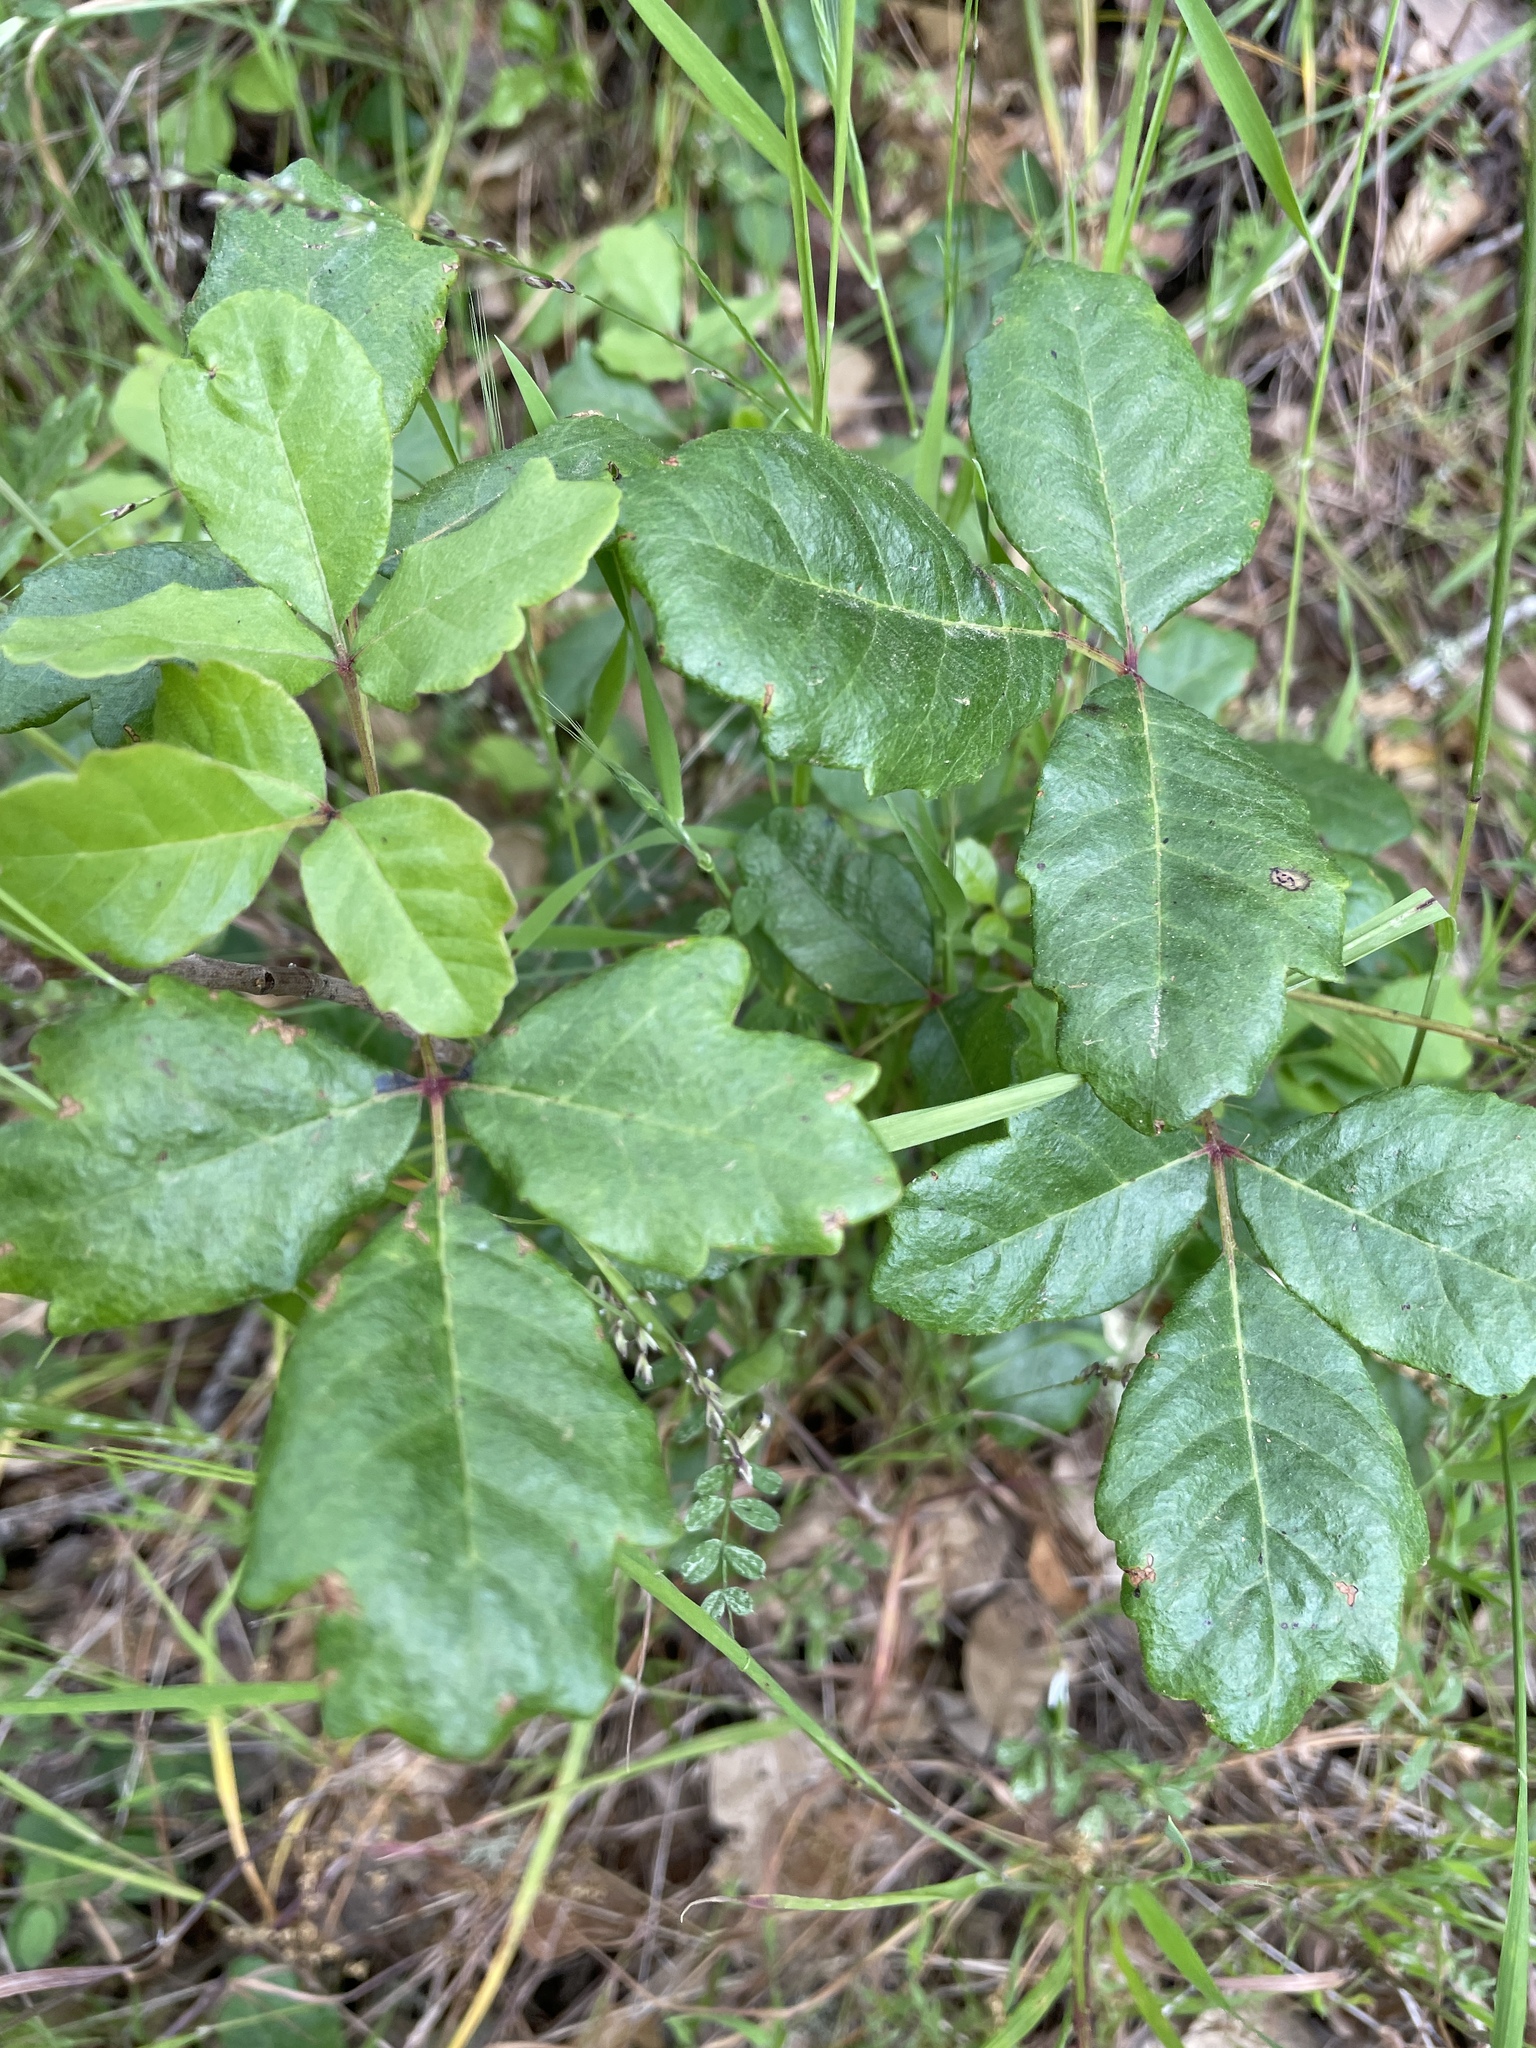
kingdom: Plantae
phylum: Tracheophyta
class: Magnoliopsida
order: Sapindales
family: Anacardiaceae
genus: Toxicodendron
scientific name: Toxicodendron diversilobum
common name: Pacific poison-oak
